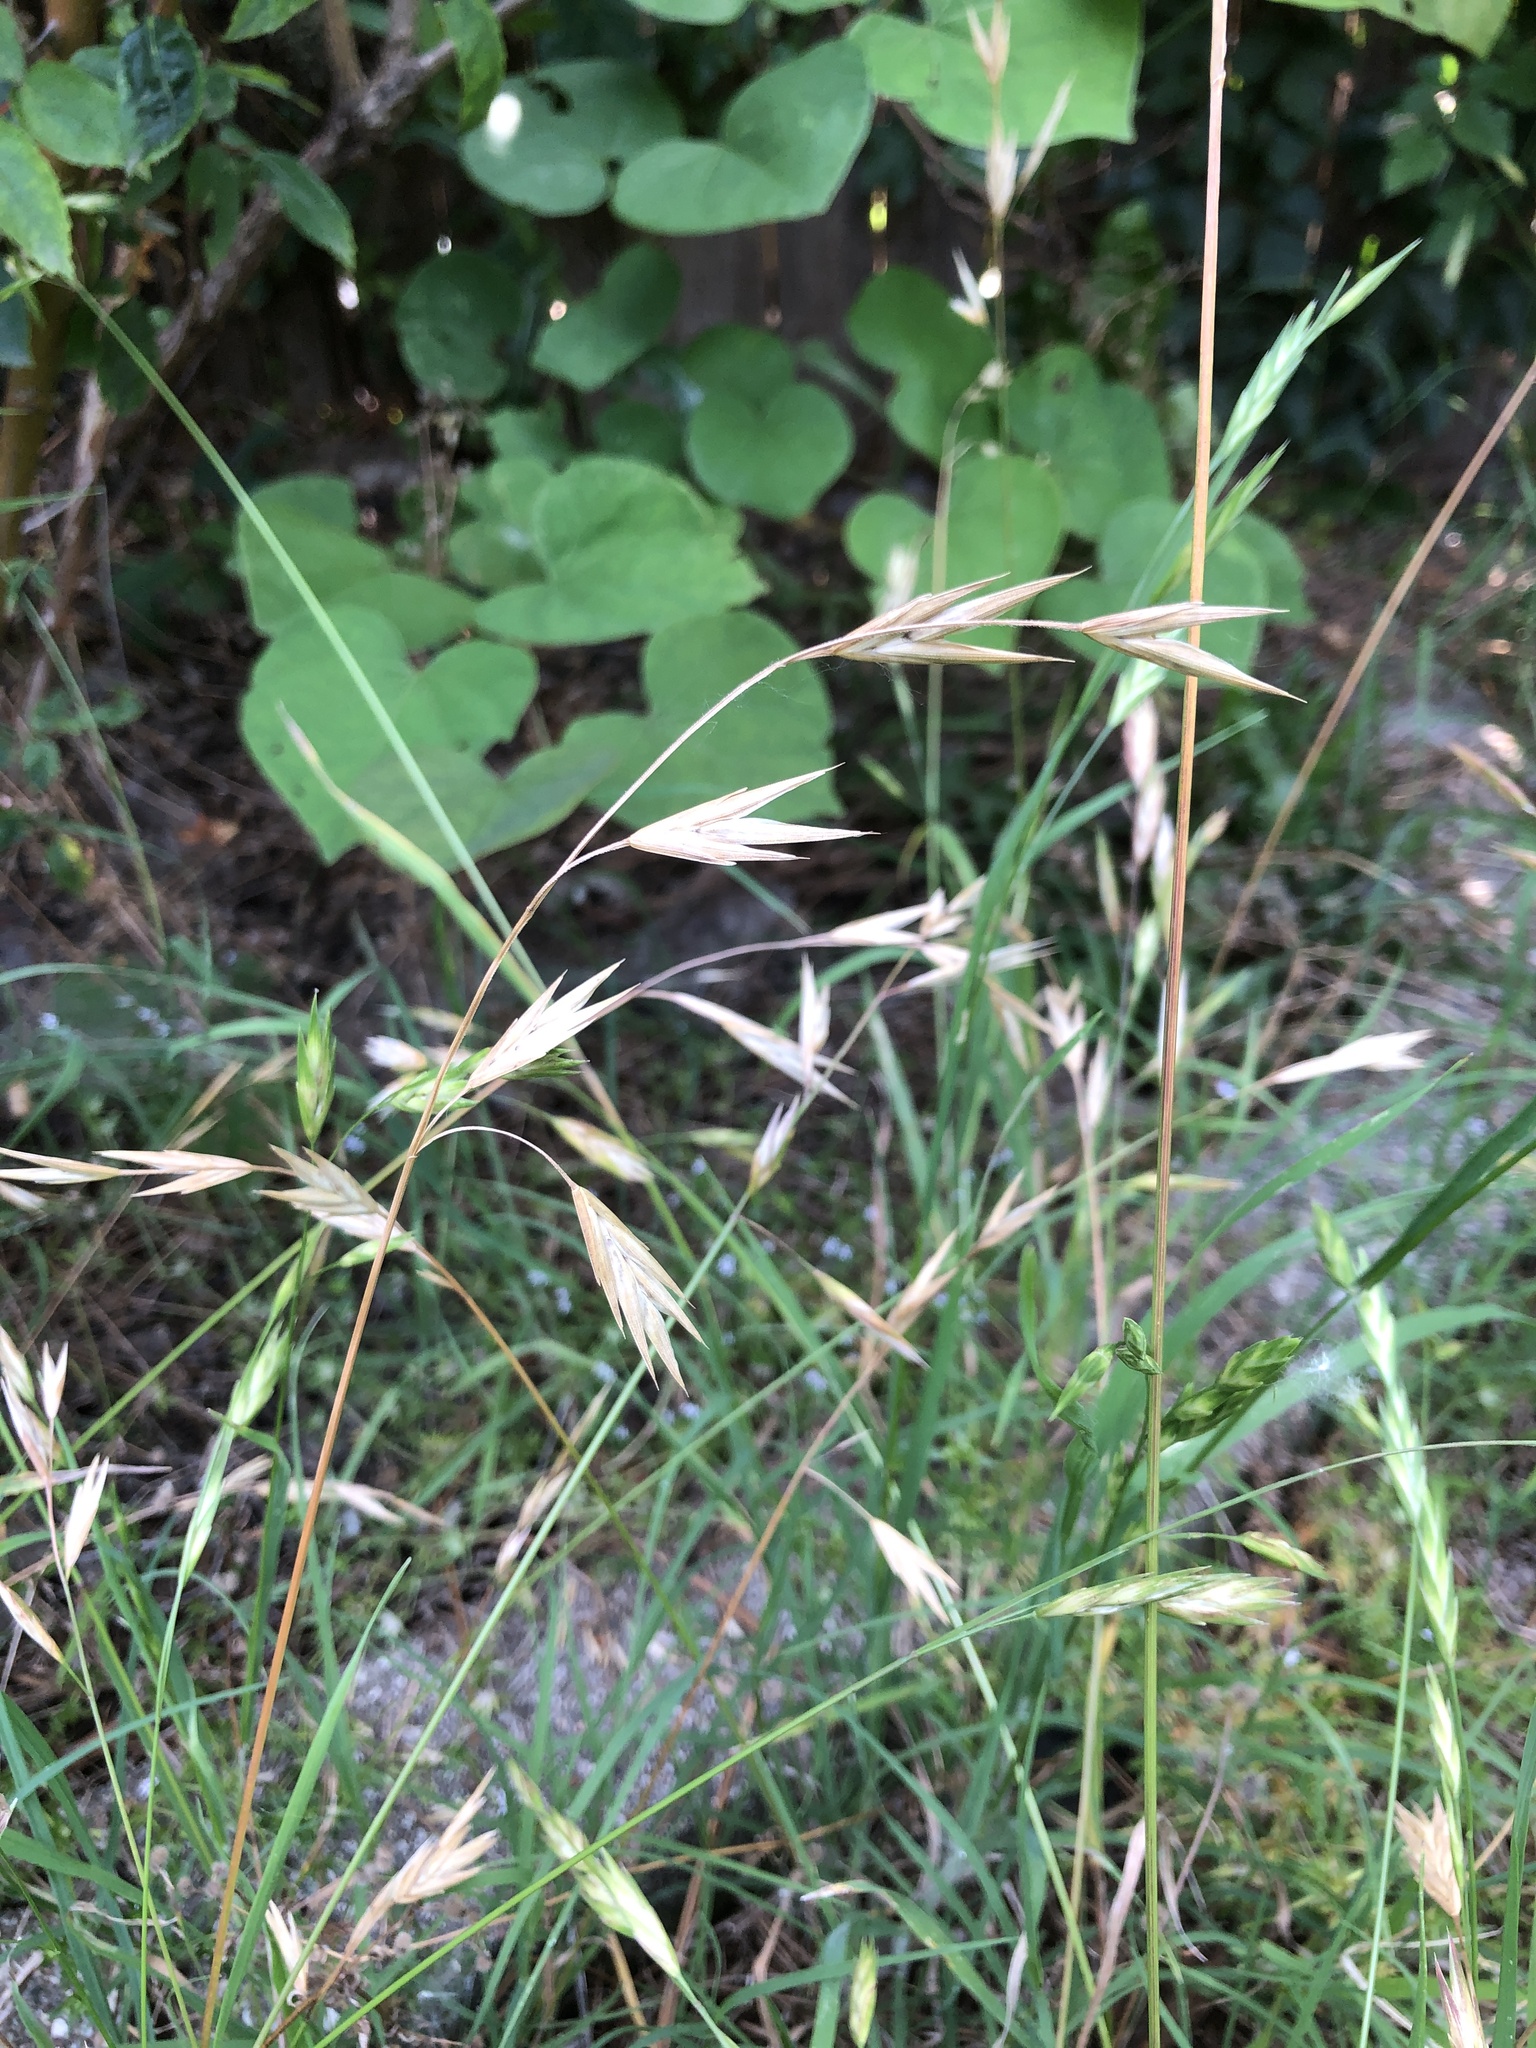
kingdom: Plantae
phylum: Tracheophyta
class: Liliopsida
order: Poales
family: Poaceae
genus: Bromus
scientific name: Bromus catharticus
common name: Rescuegrass
